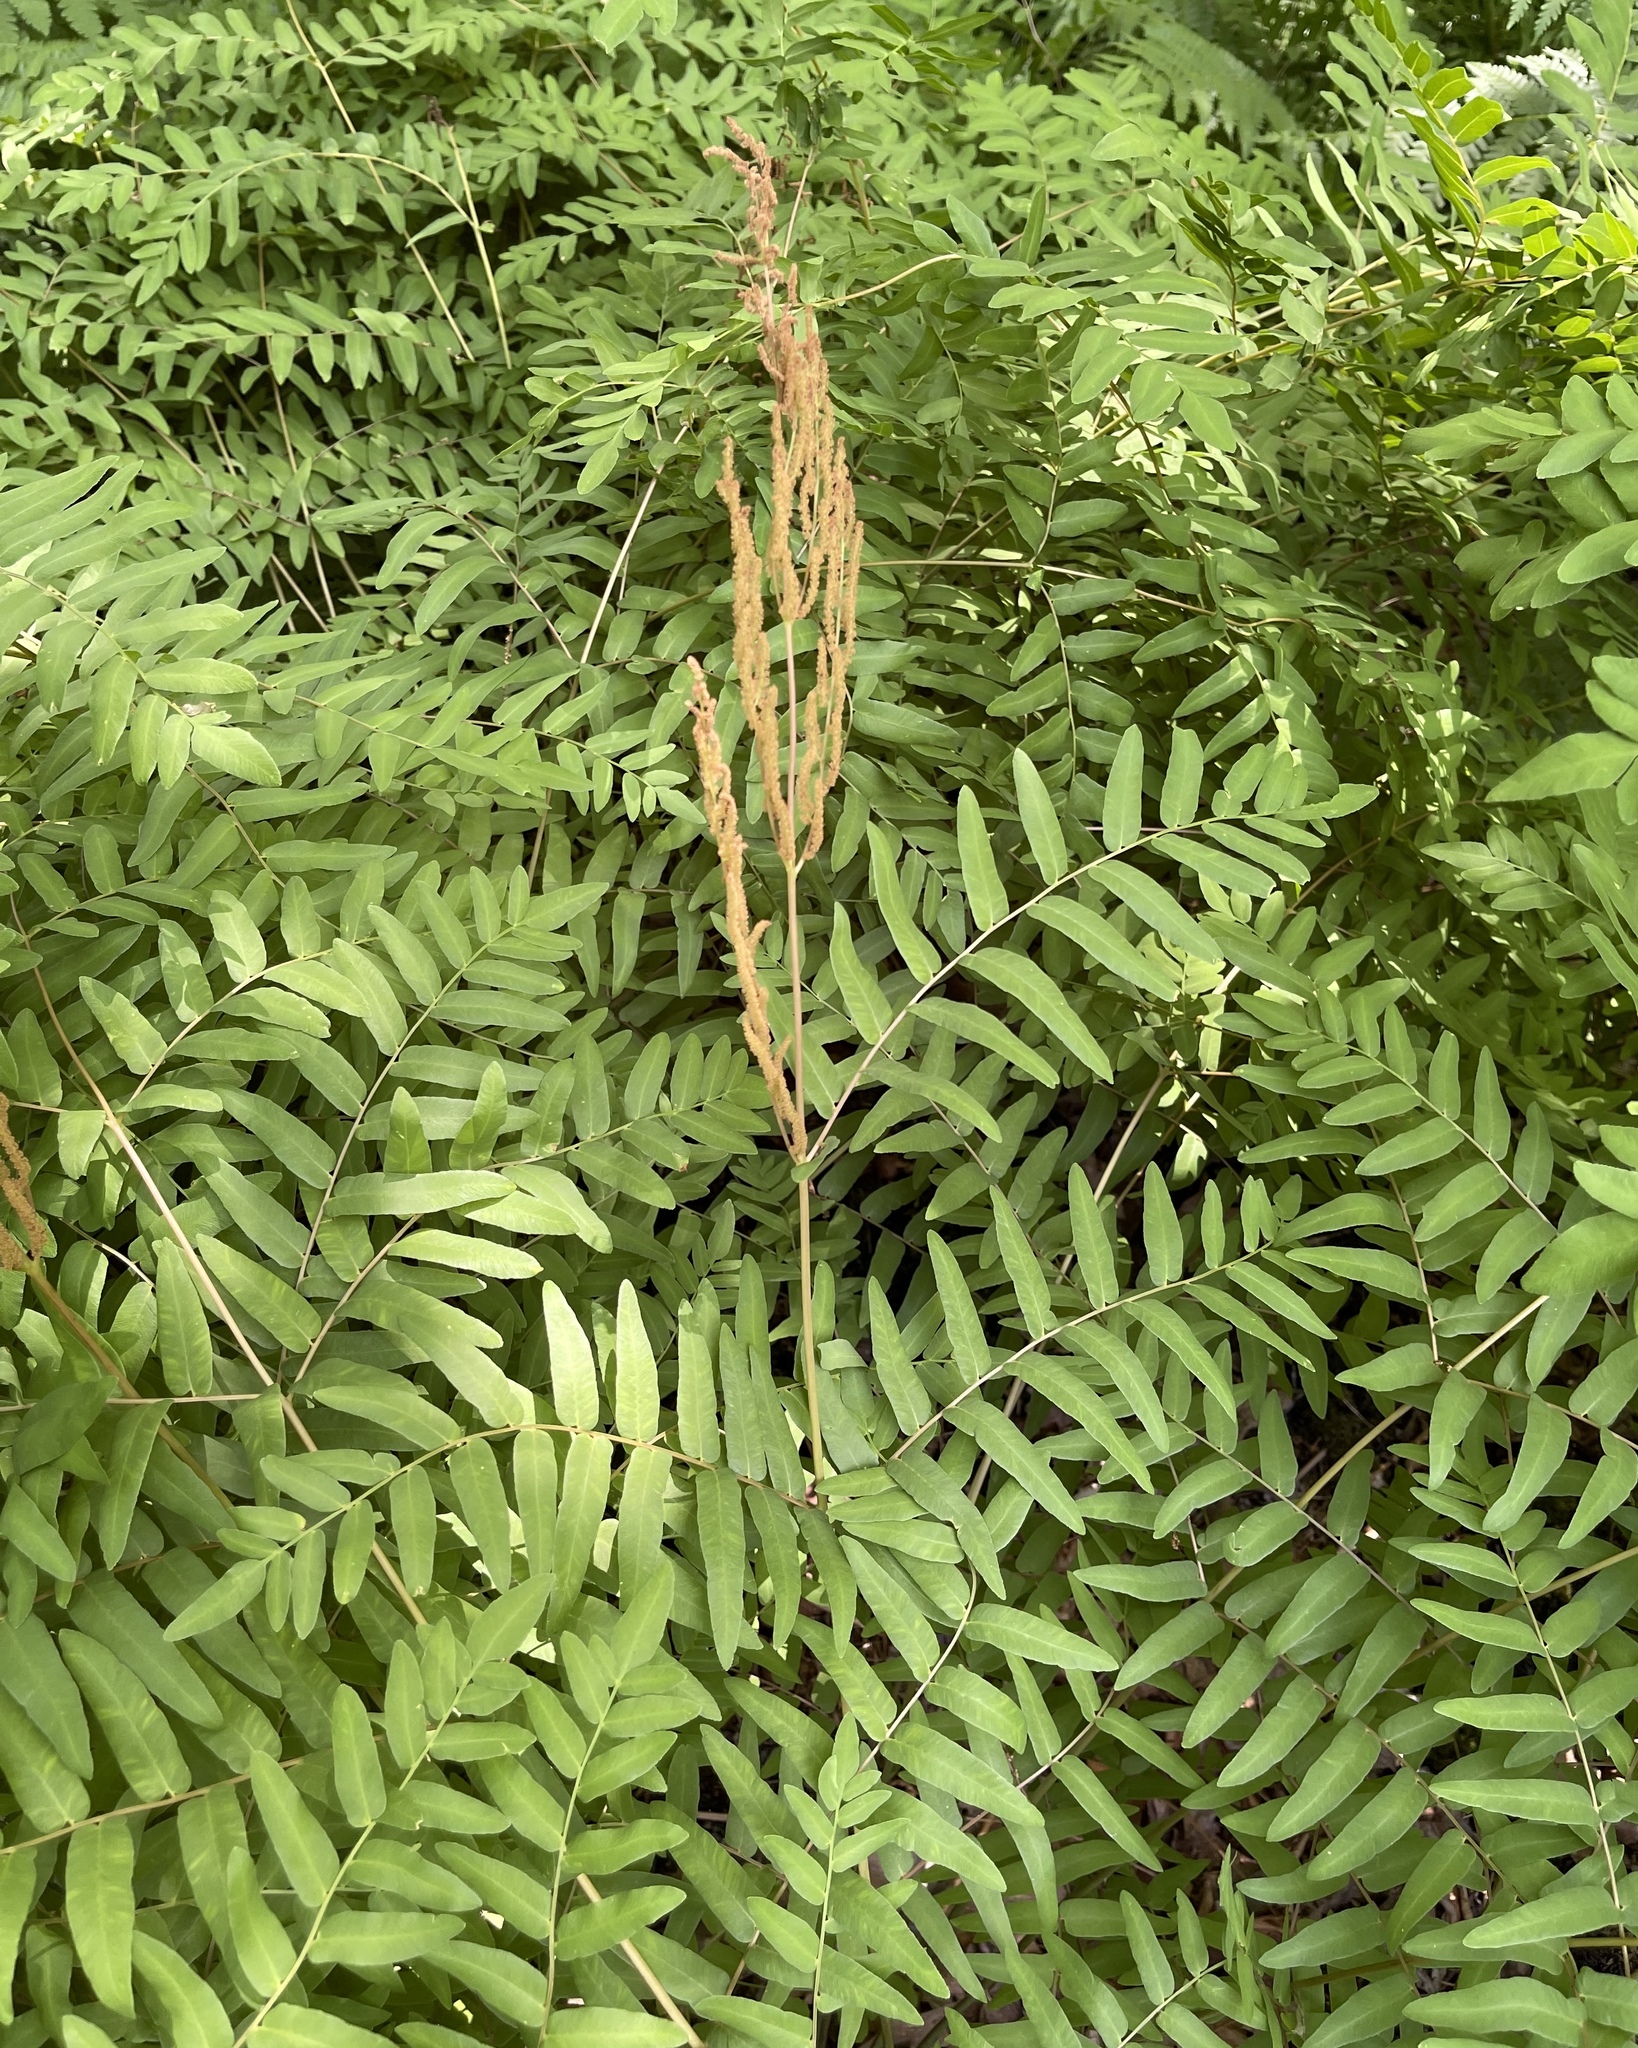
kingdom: Plantae
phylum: Tracheophyta
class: Polypodiopsida
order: Osmundales
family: Osmundaceae
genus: Osmunda
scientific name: Osmunda spectabilis
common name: American royal fern
